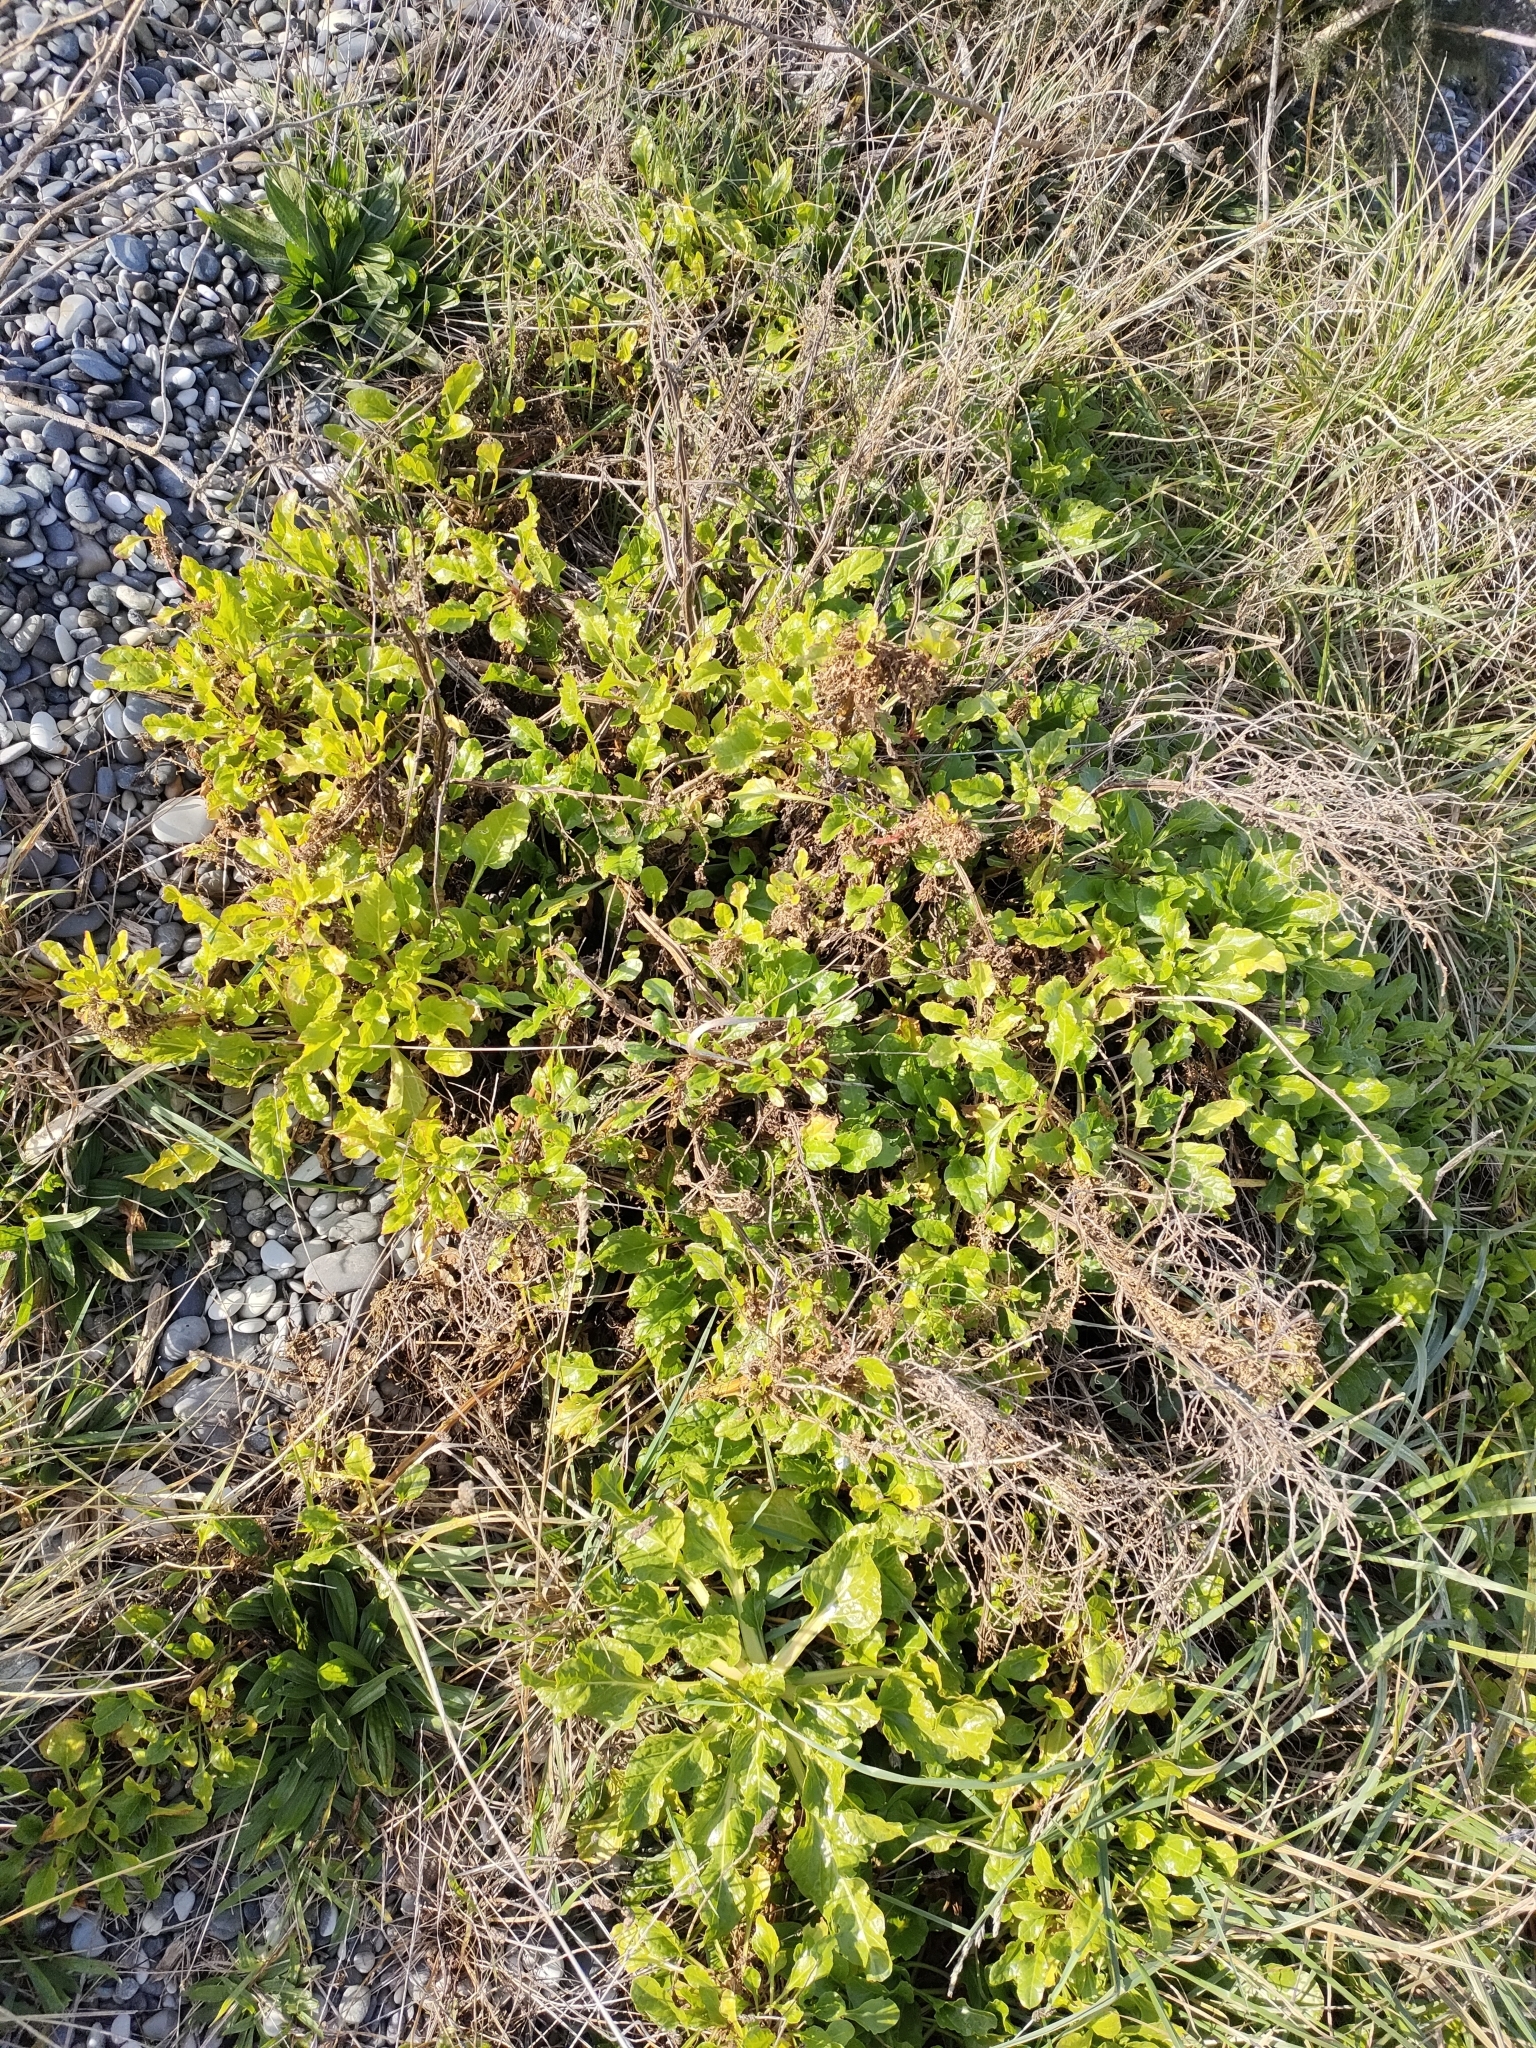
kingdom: Plantae
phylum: Tracheophyta
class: Magnoliopsida
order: Caryophyllales
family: Amaranthaceae
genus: Beta
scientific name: Beta vulgaris
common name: Beet
